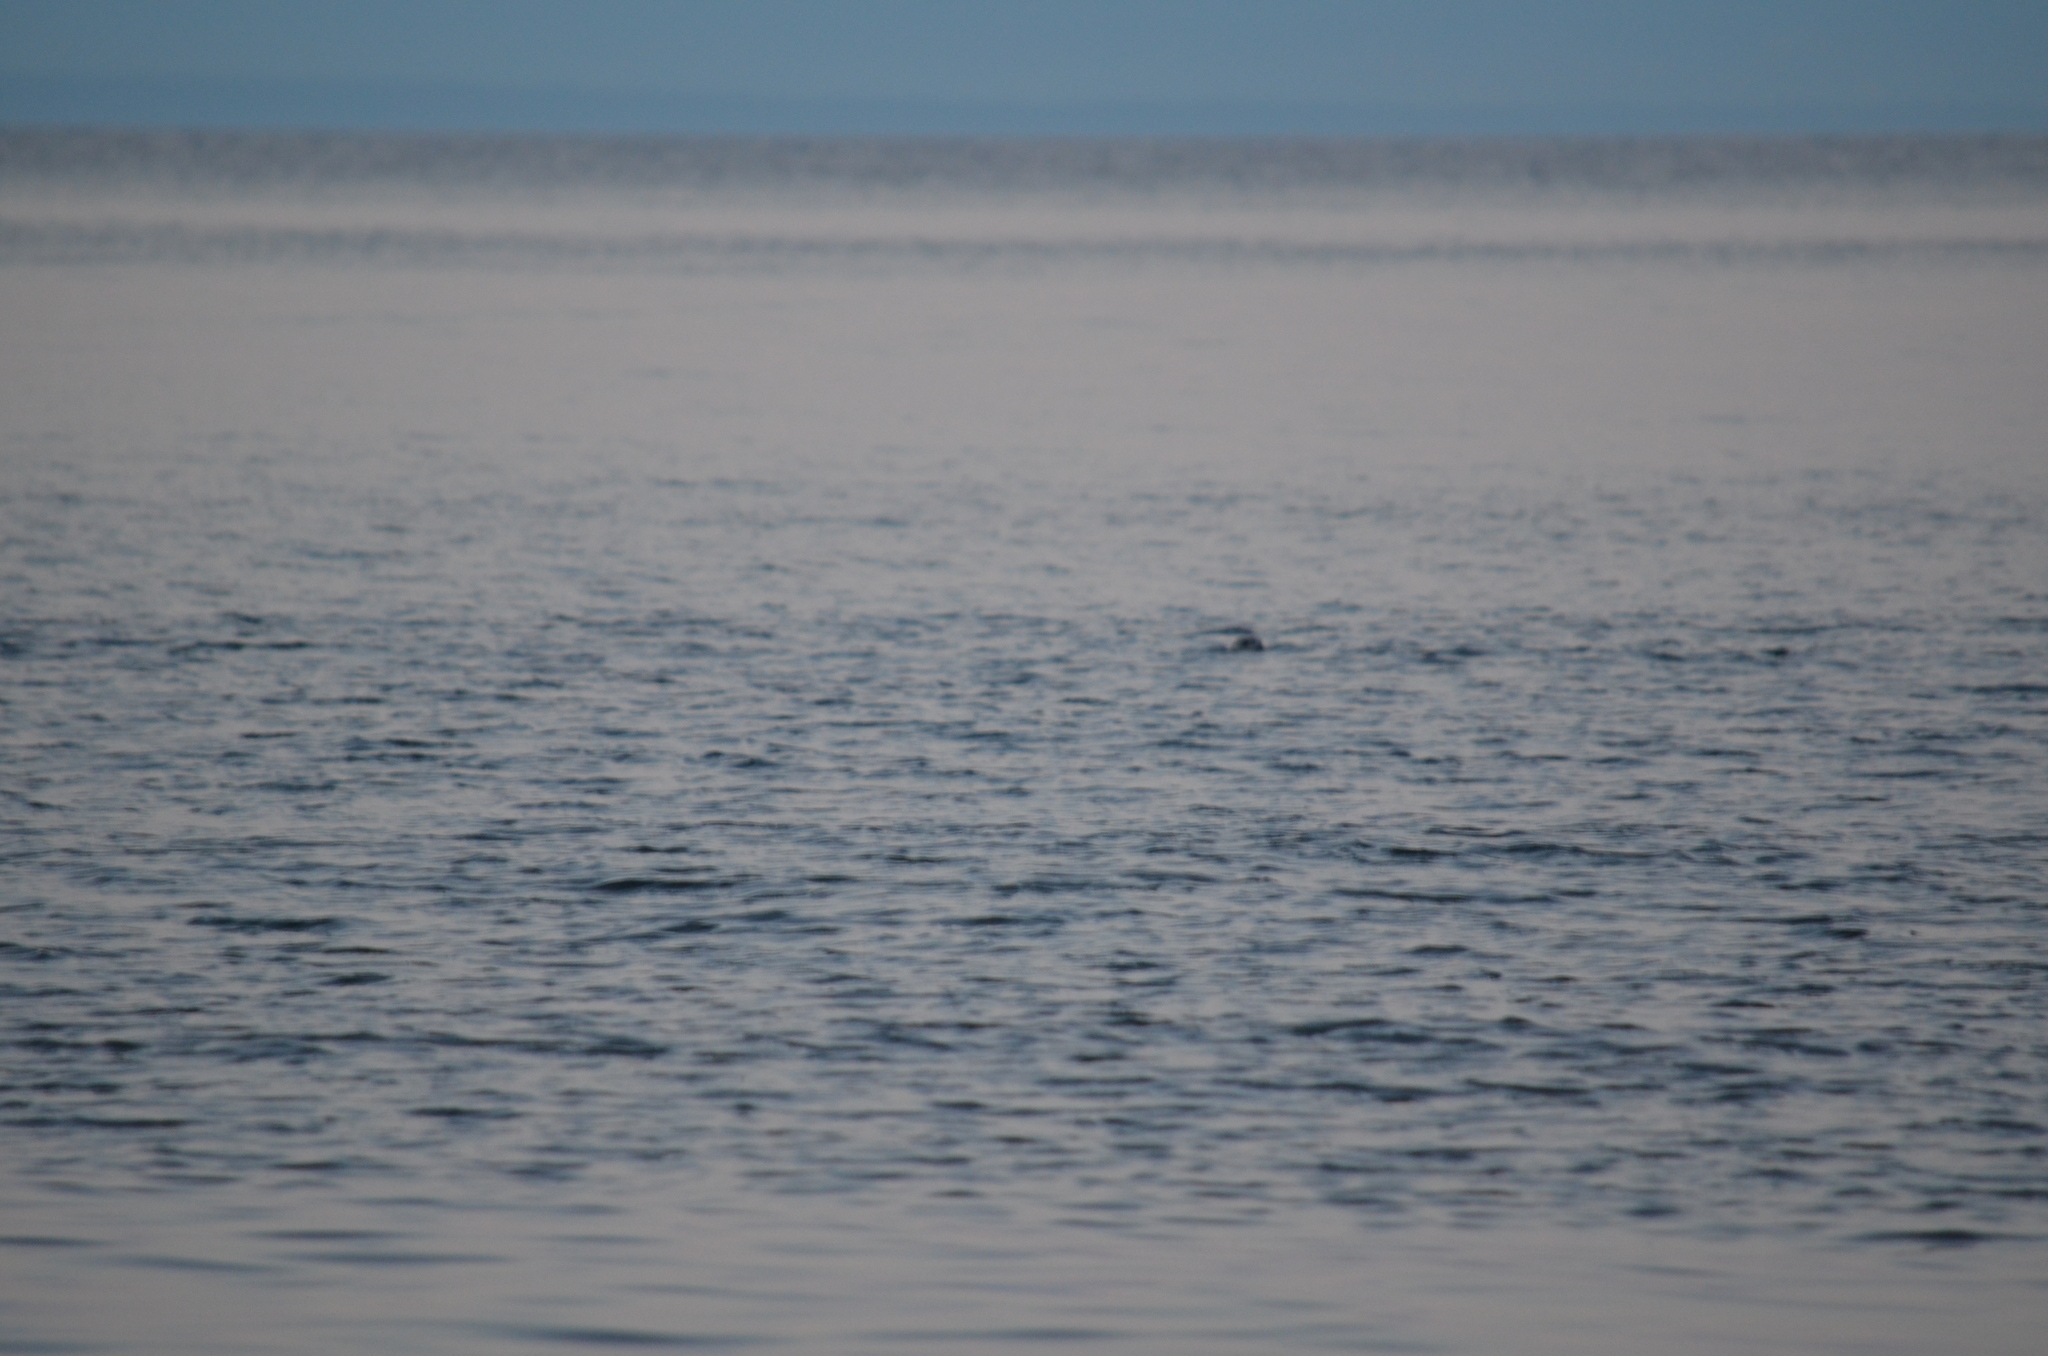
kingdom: Animalia
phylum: Chordata
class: Mammalia
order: Carnivora
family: Phocidae
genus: Phoca
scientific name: Phoca vitulina
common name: Harbor seal
